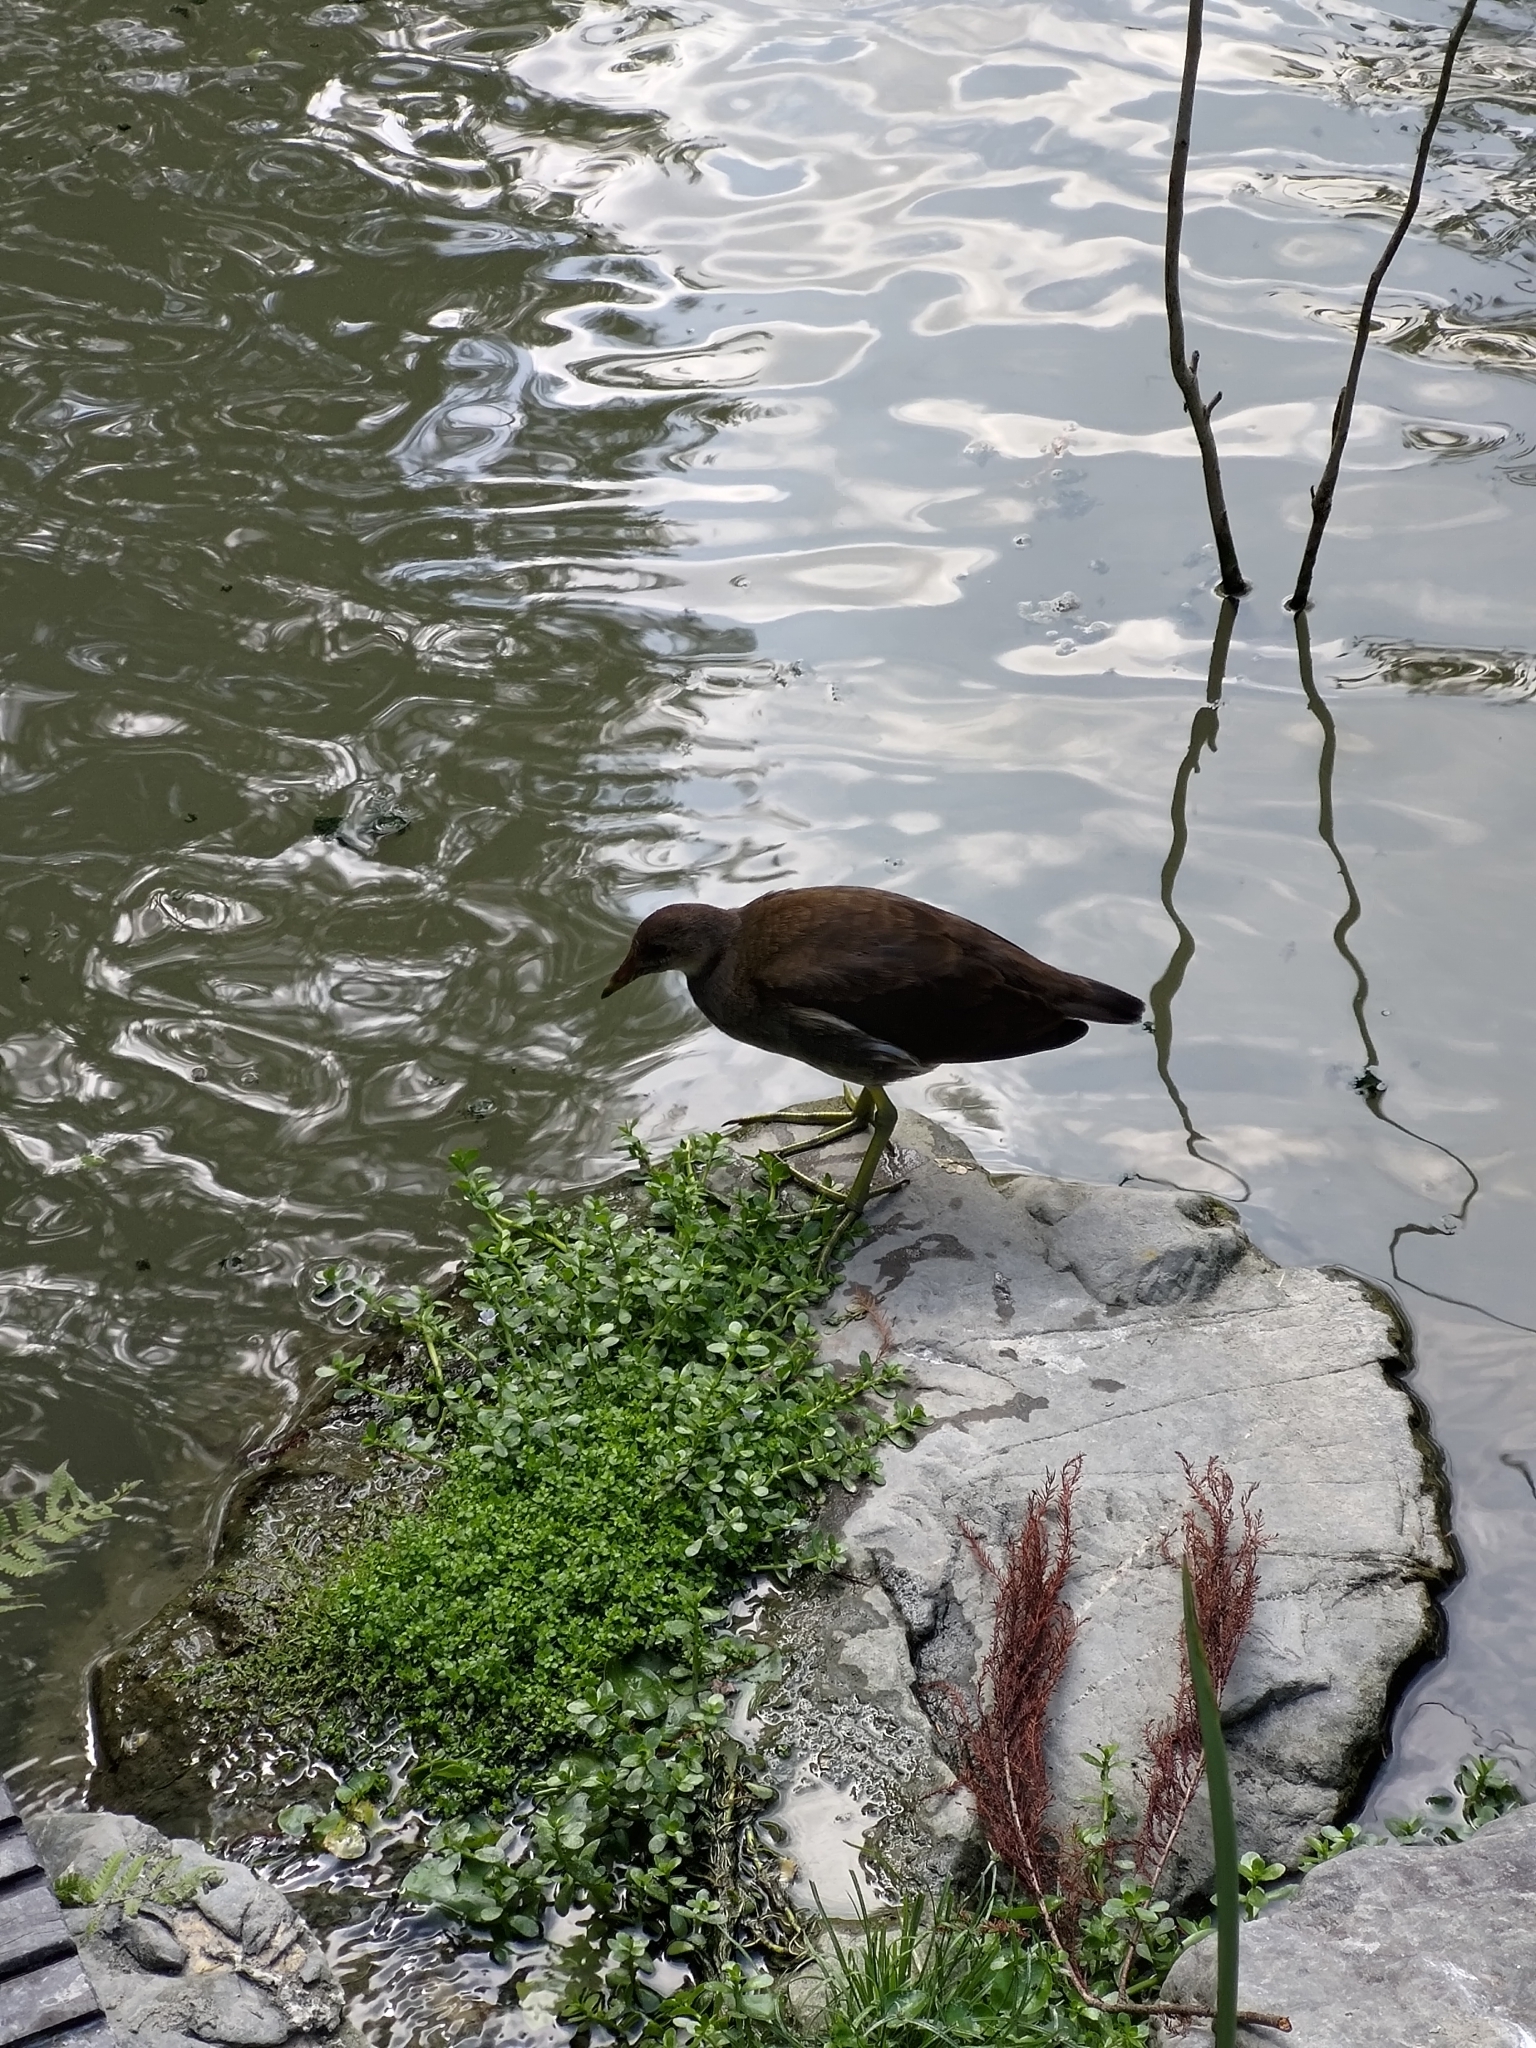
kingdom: Animalia
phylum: Chordata
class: Aves
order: Gruiformes
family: Rallidae
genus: Gallinula
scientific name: Gallinula chloropus
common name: Common moorhen
